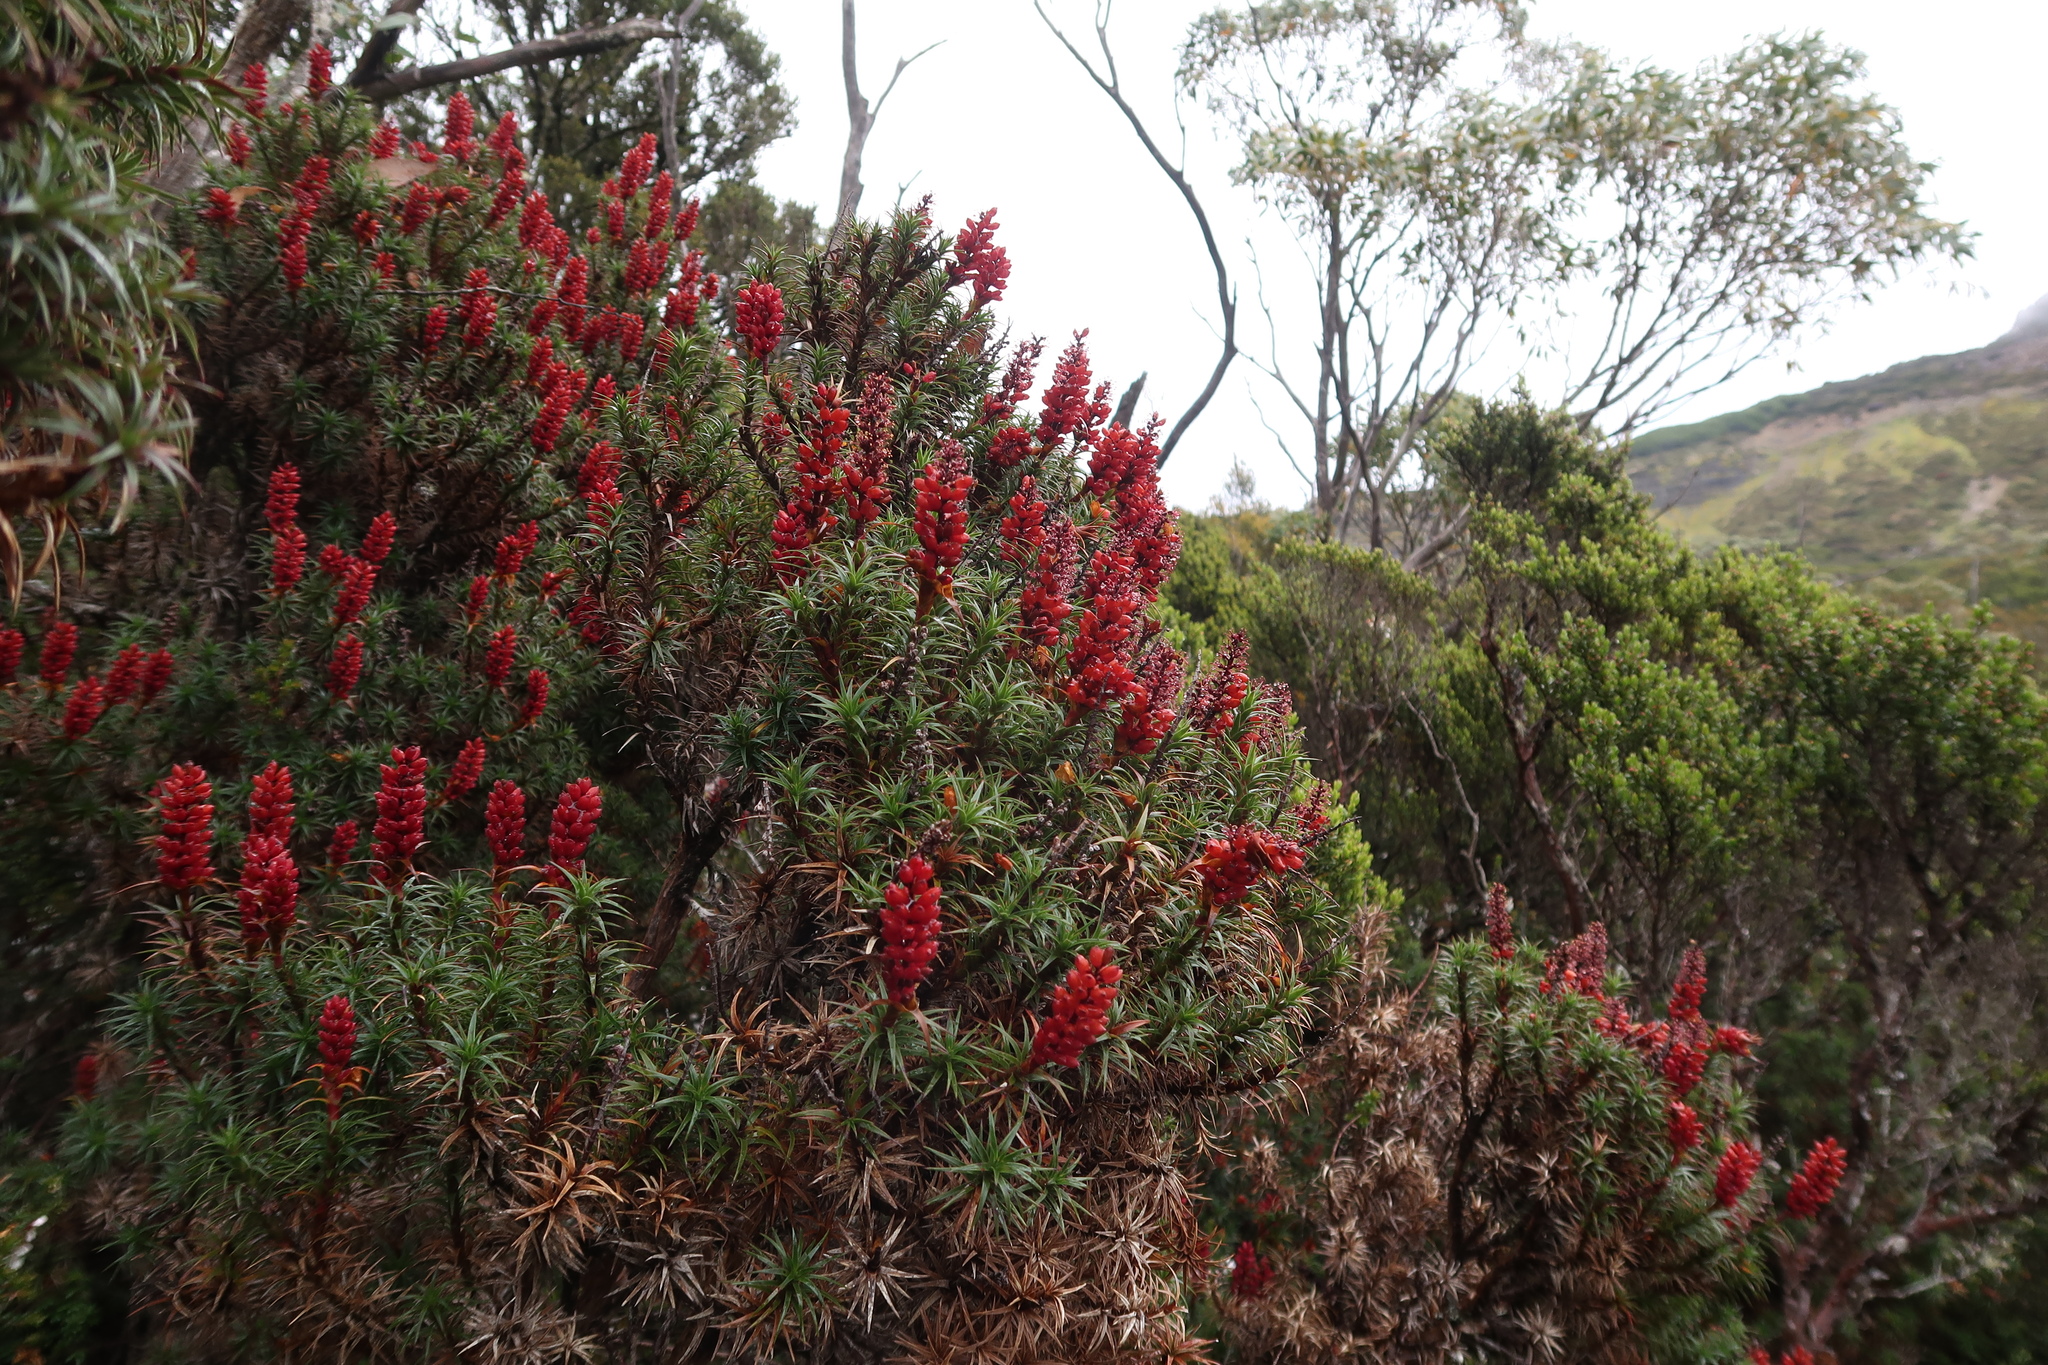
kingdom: Plantae
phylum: Tracheophyta
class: Magnoliopsida
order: Ericales
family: Ericaceae
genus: Dracophyllum
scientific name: Dracophyllum persistentifolium
